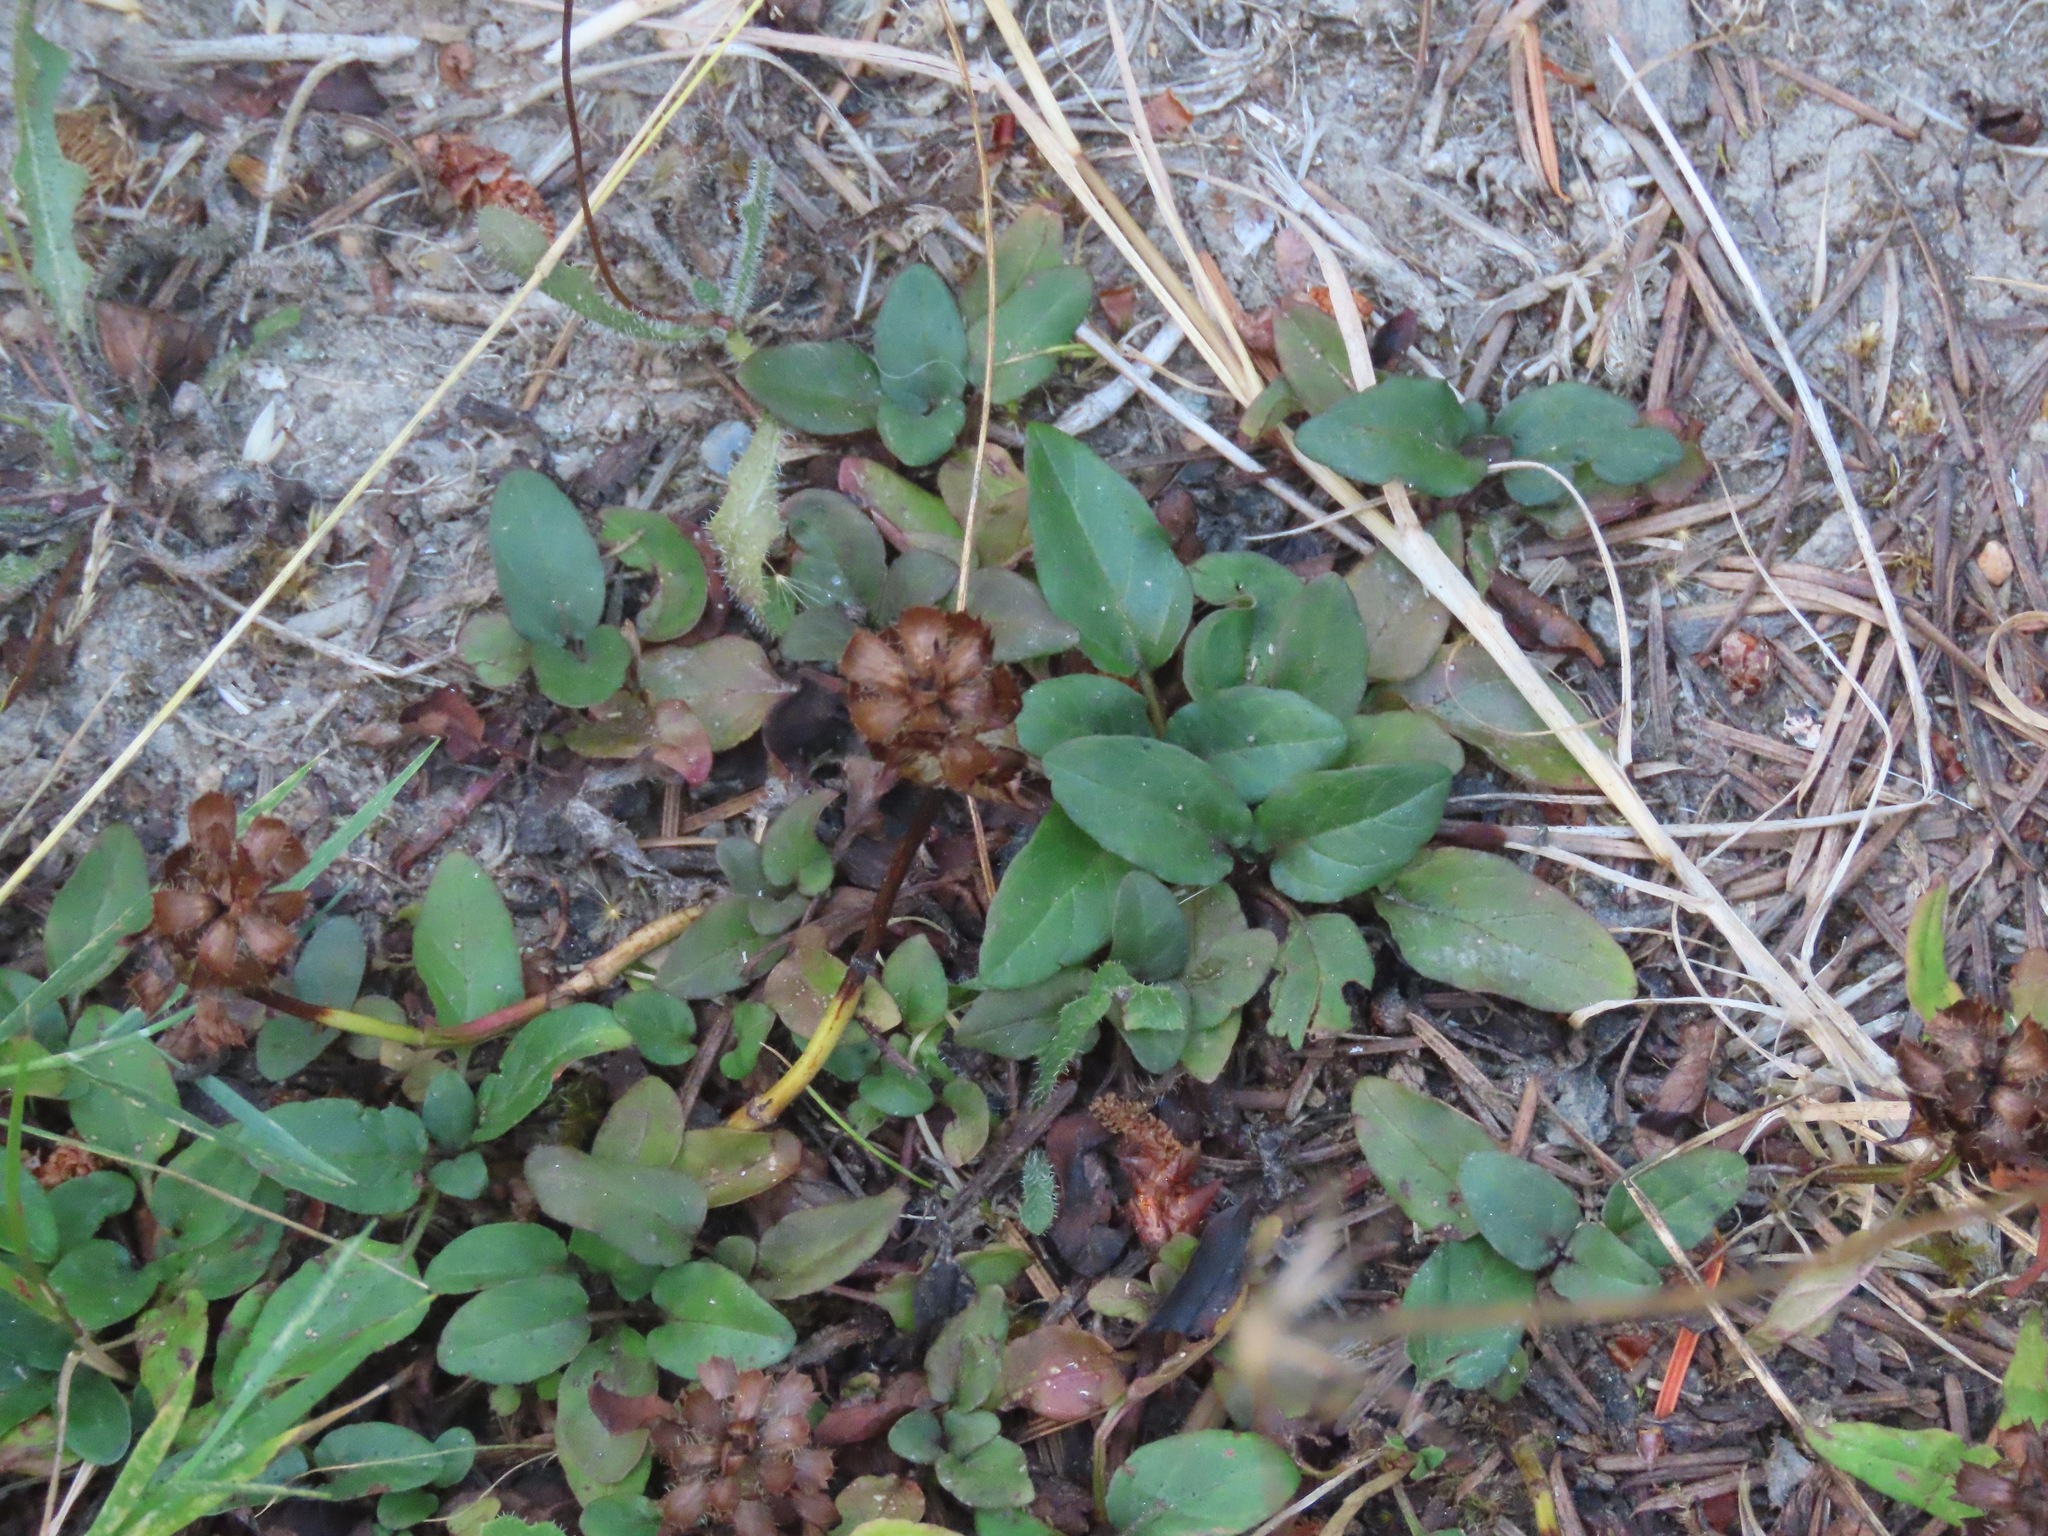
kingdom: Plantae
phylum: Tracheophyta
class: Magnoliopsida
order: Lamiales
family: Lamiaceae
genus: Prunella
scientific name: Prunella vulgaris
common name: Heal-all
